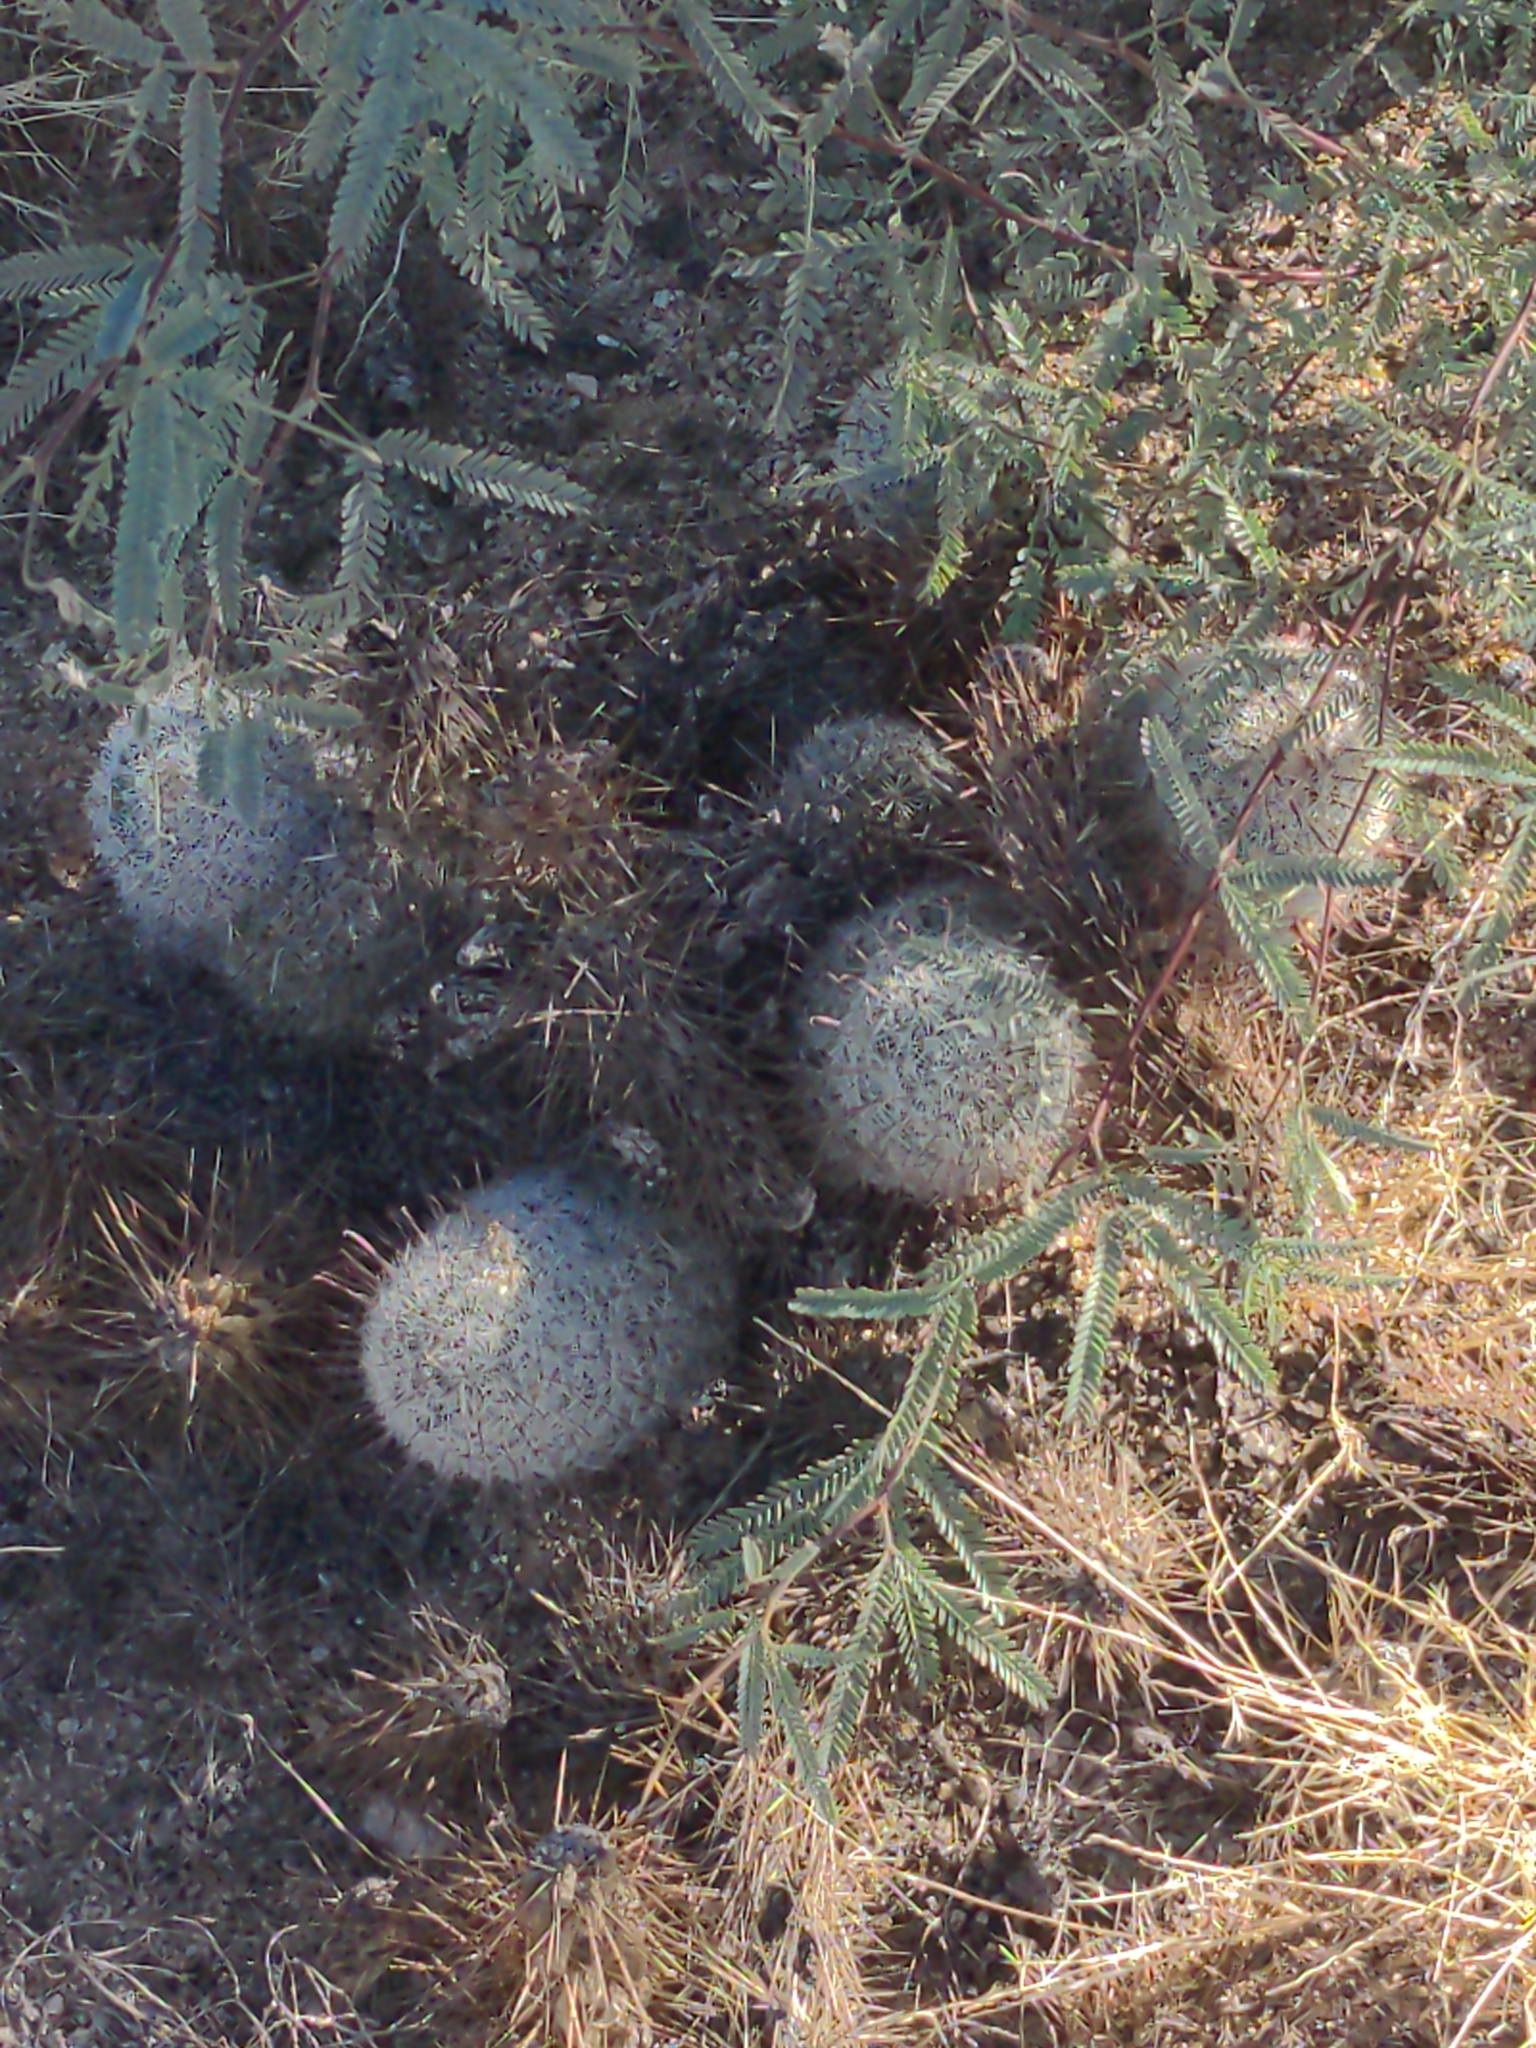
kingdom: Plantae
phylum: Tracheophyta
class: Magnoliopsida
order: Caryophyllales
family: Cactaceae
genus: Cochemiea
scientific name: Cochemiea grahamii
